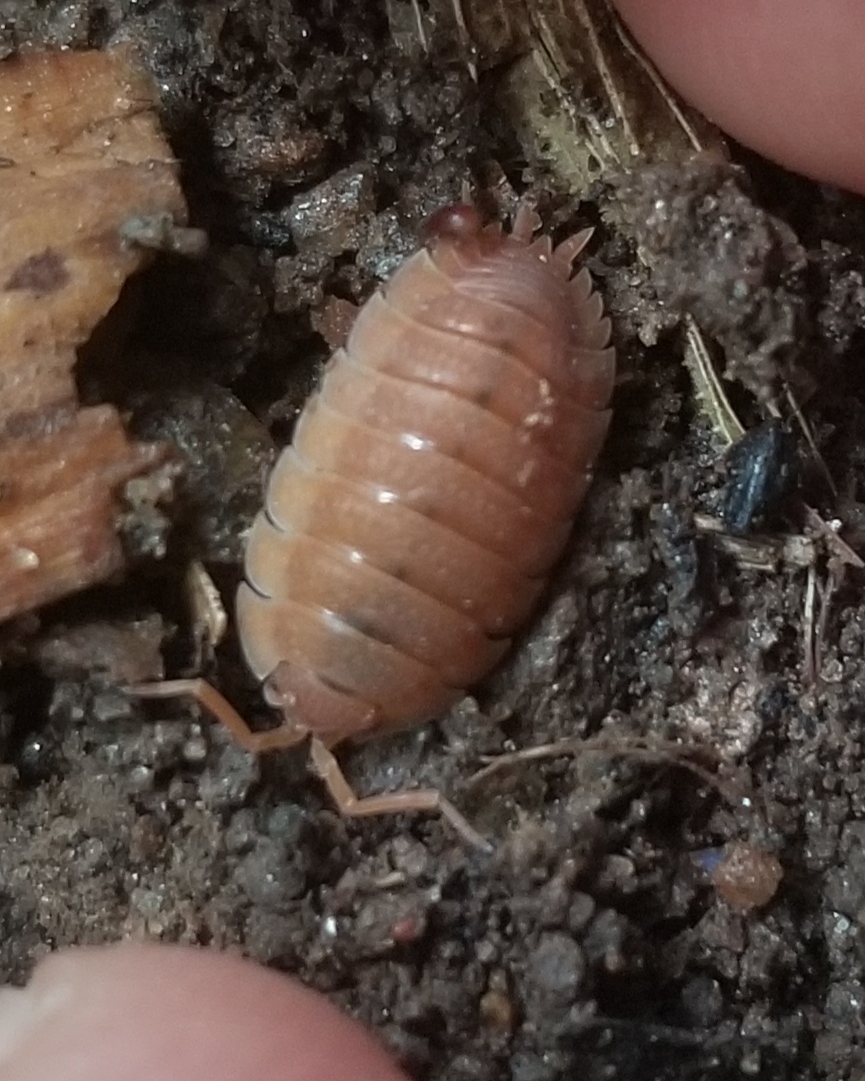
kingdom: Animalia
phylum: Arthropoda
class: Malacostraca
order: Isopoda
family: Porcellionidae
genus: Porcellio
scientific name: Porcellio scaber
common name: Common rough woodlouse
